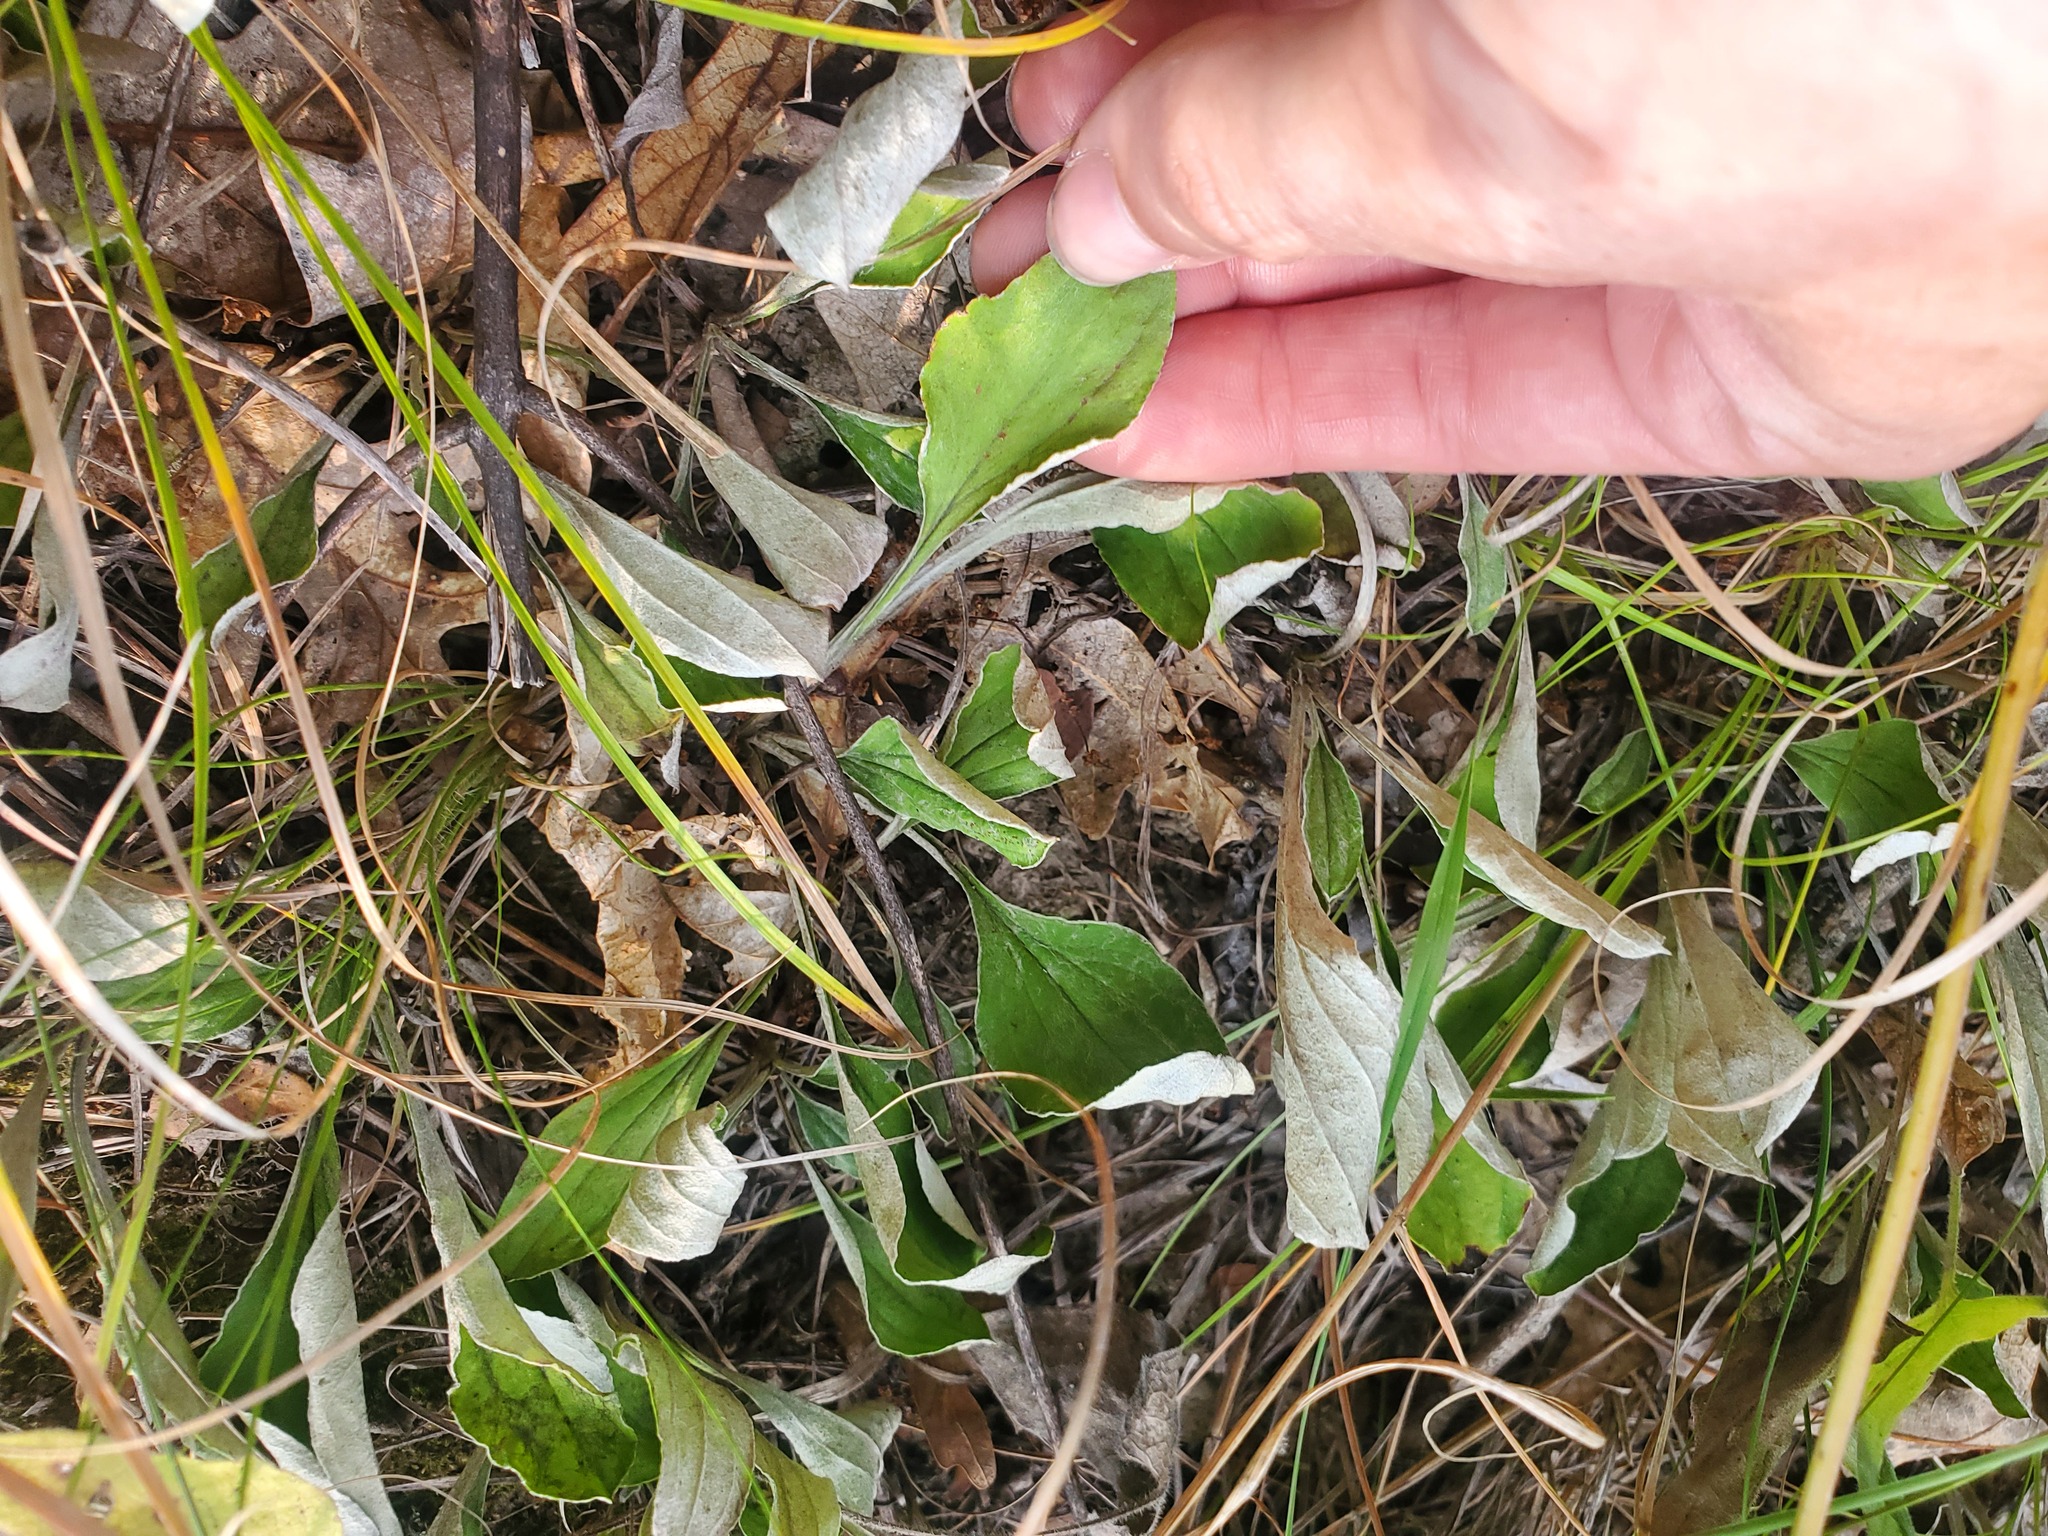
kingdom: Plantae
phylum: Tracheophyta
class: Magnoliopsida
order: Asterales
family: Asteraceae
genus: Antennaria
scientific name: Antennaria parlinii
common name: Parlin's pussytoes
